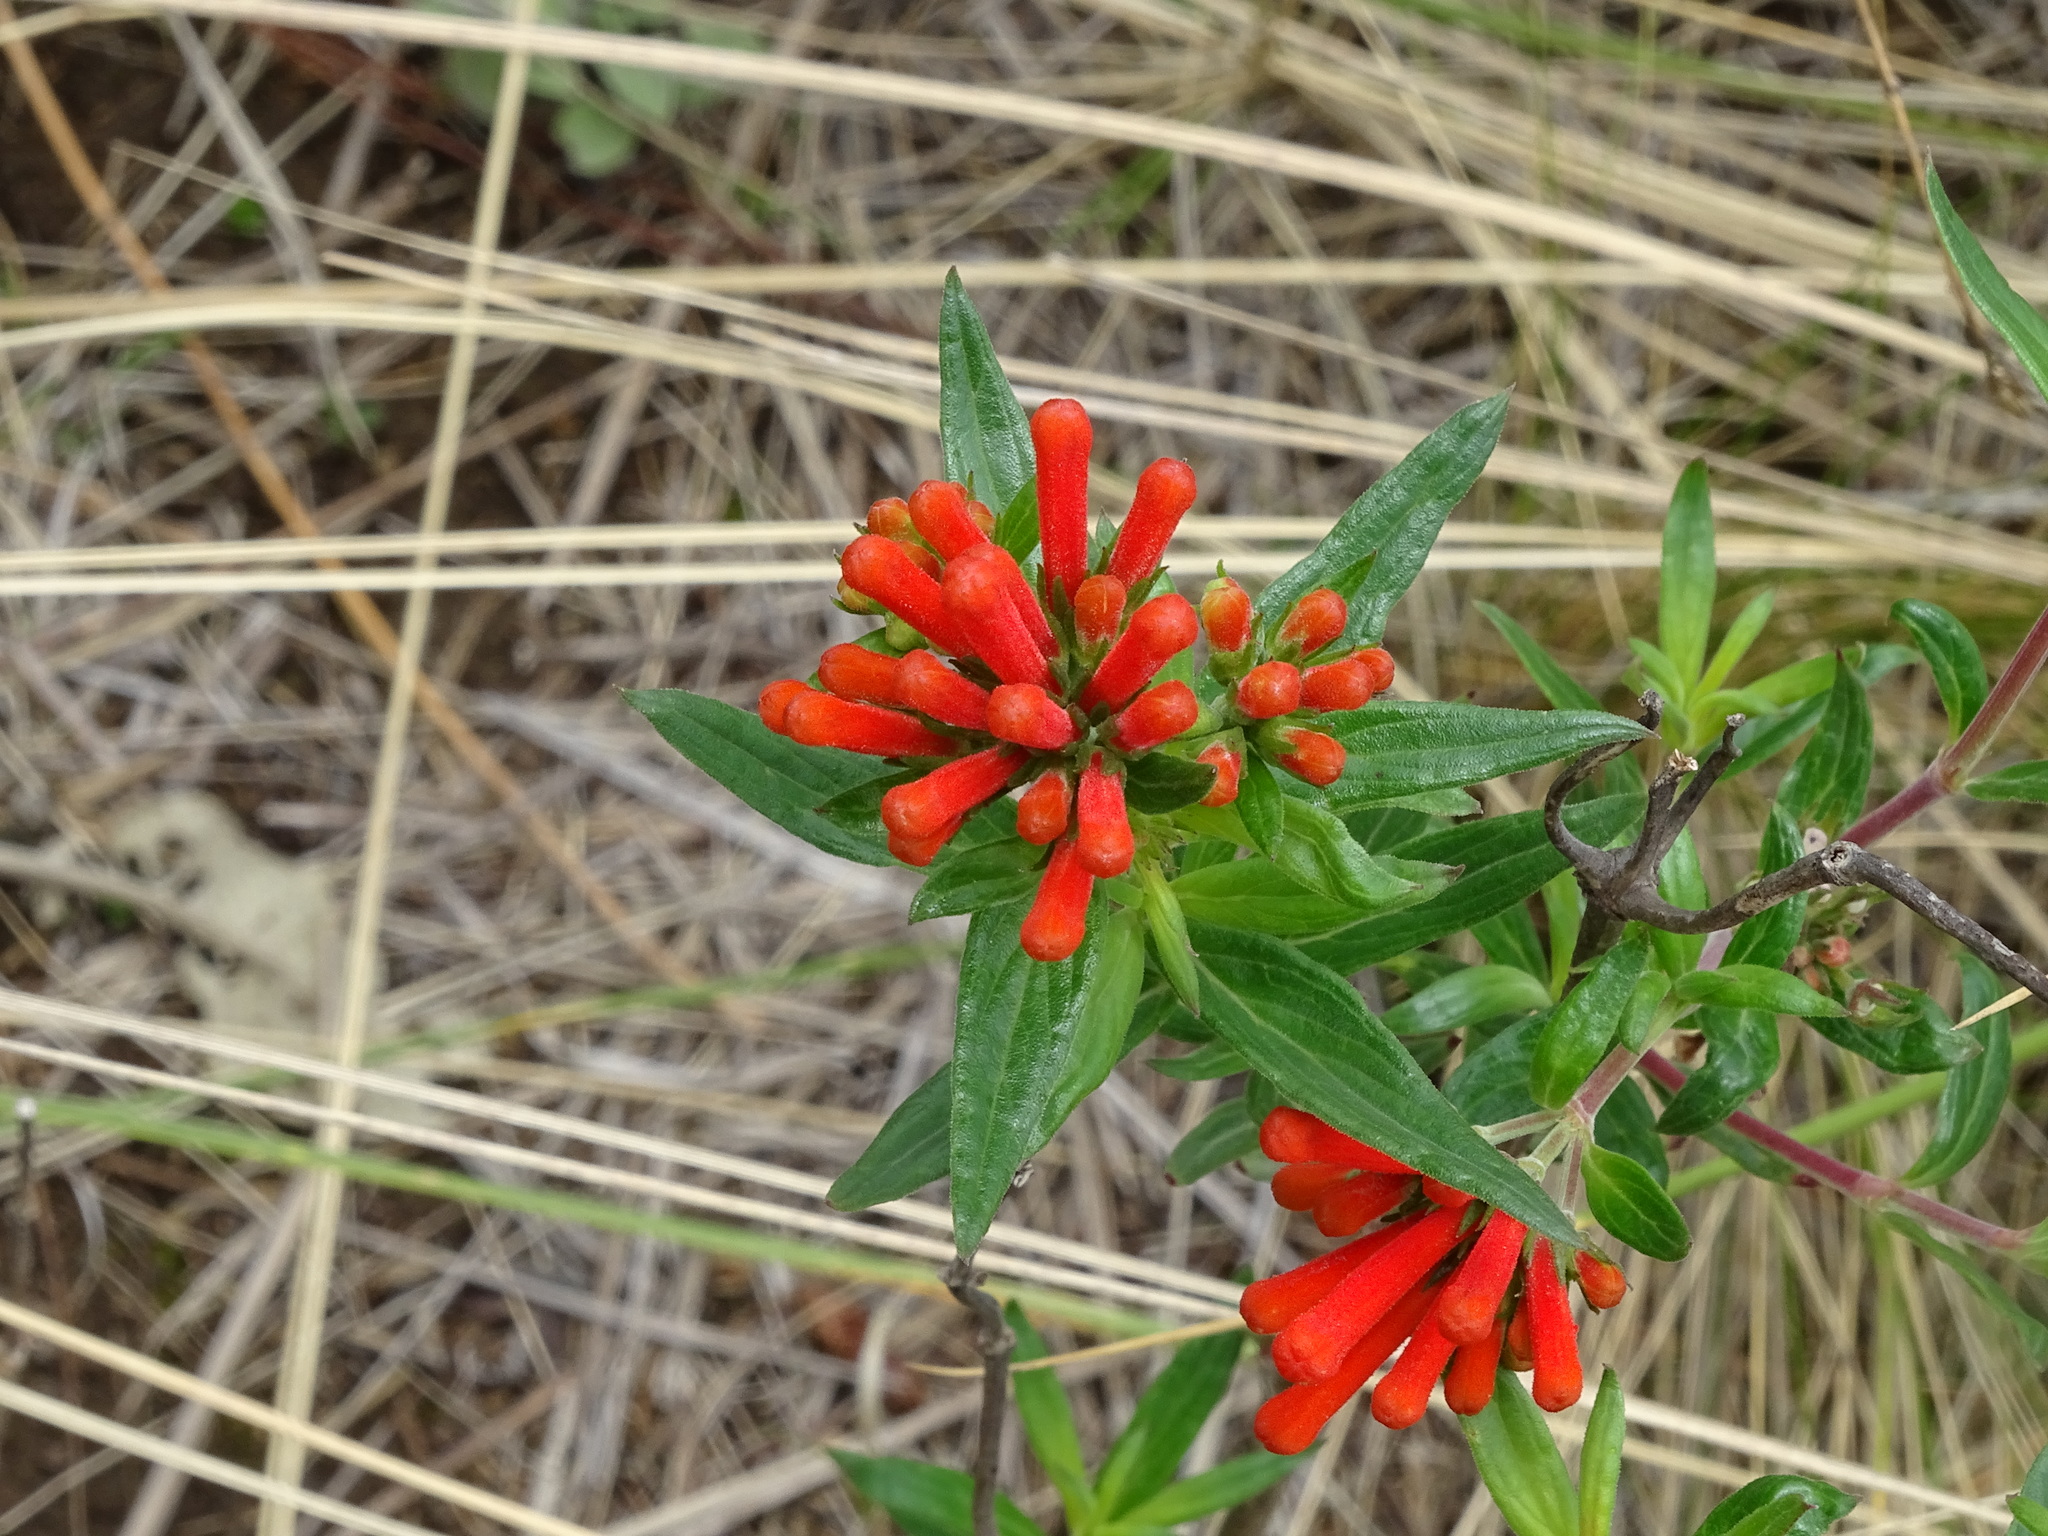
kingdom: Plantae
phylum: Tracheophyta
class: Magnoliopsida
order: Gentianales
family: Rubiaceae
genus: Bouvardia
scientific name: Bouvardia ternifolia
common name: Scarlet bouvardia
